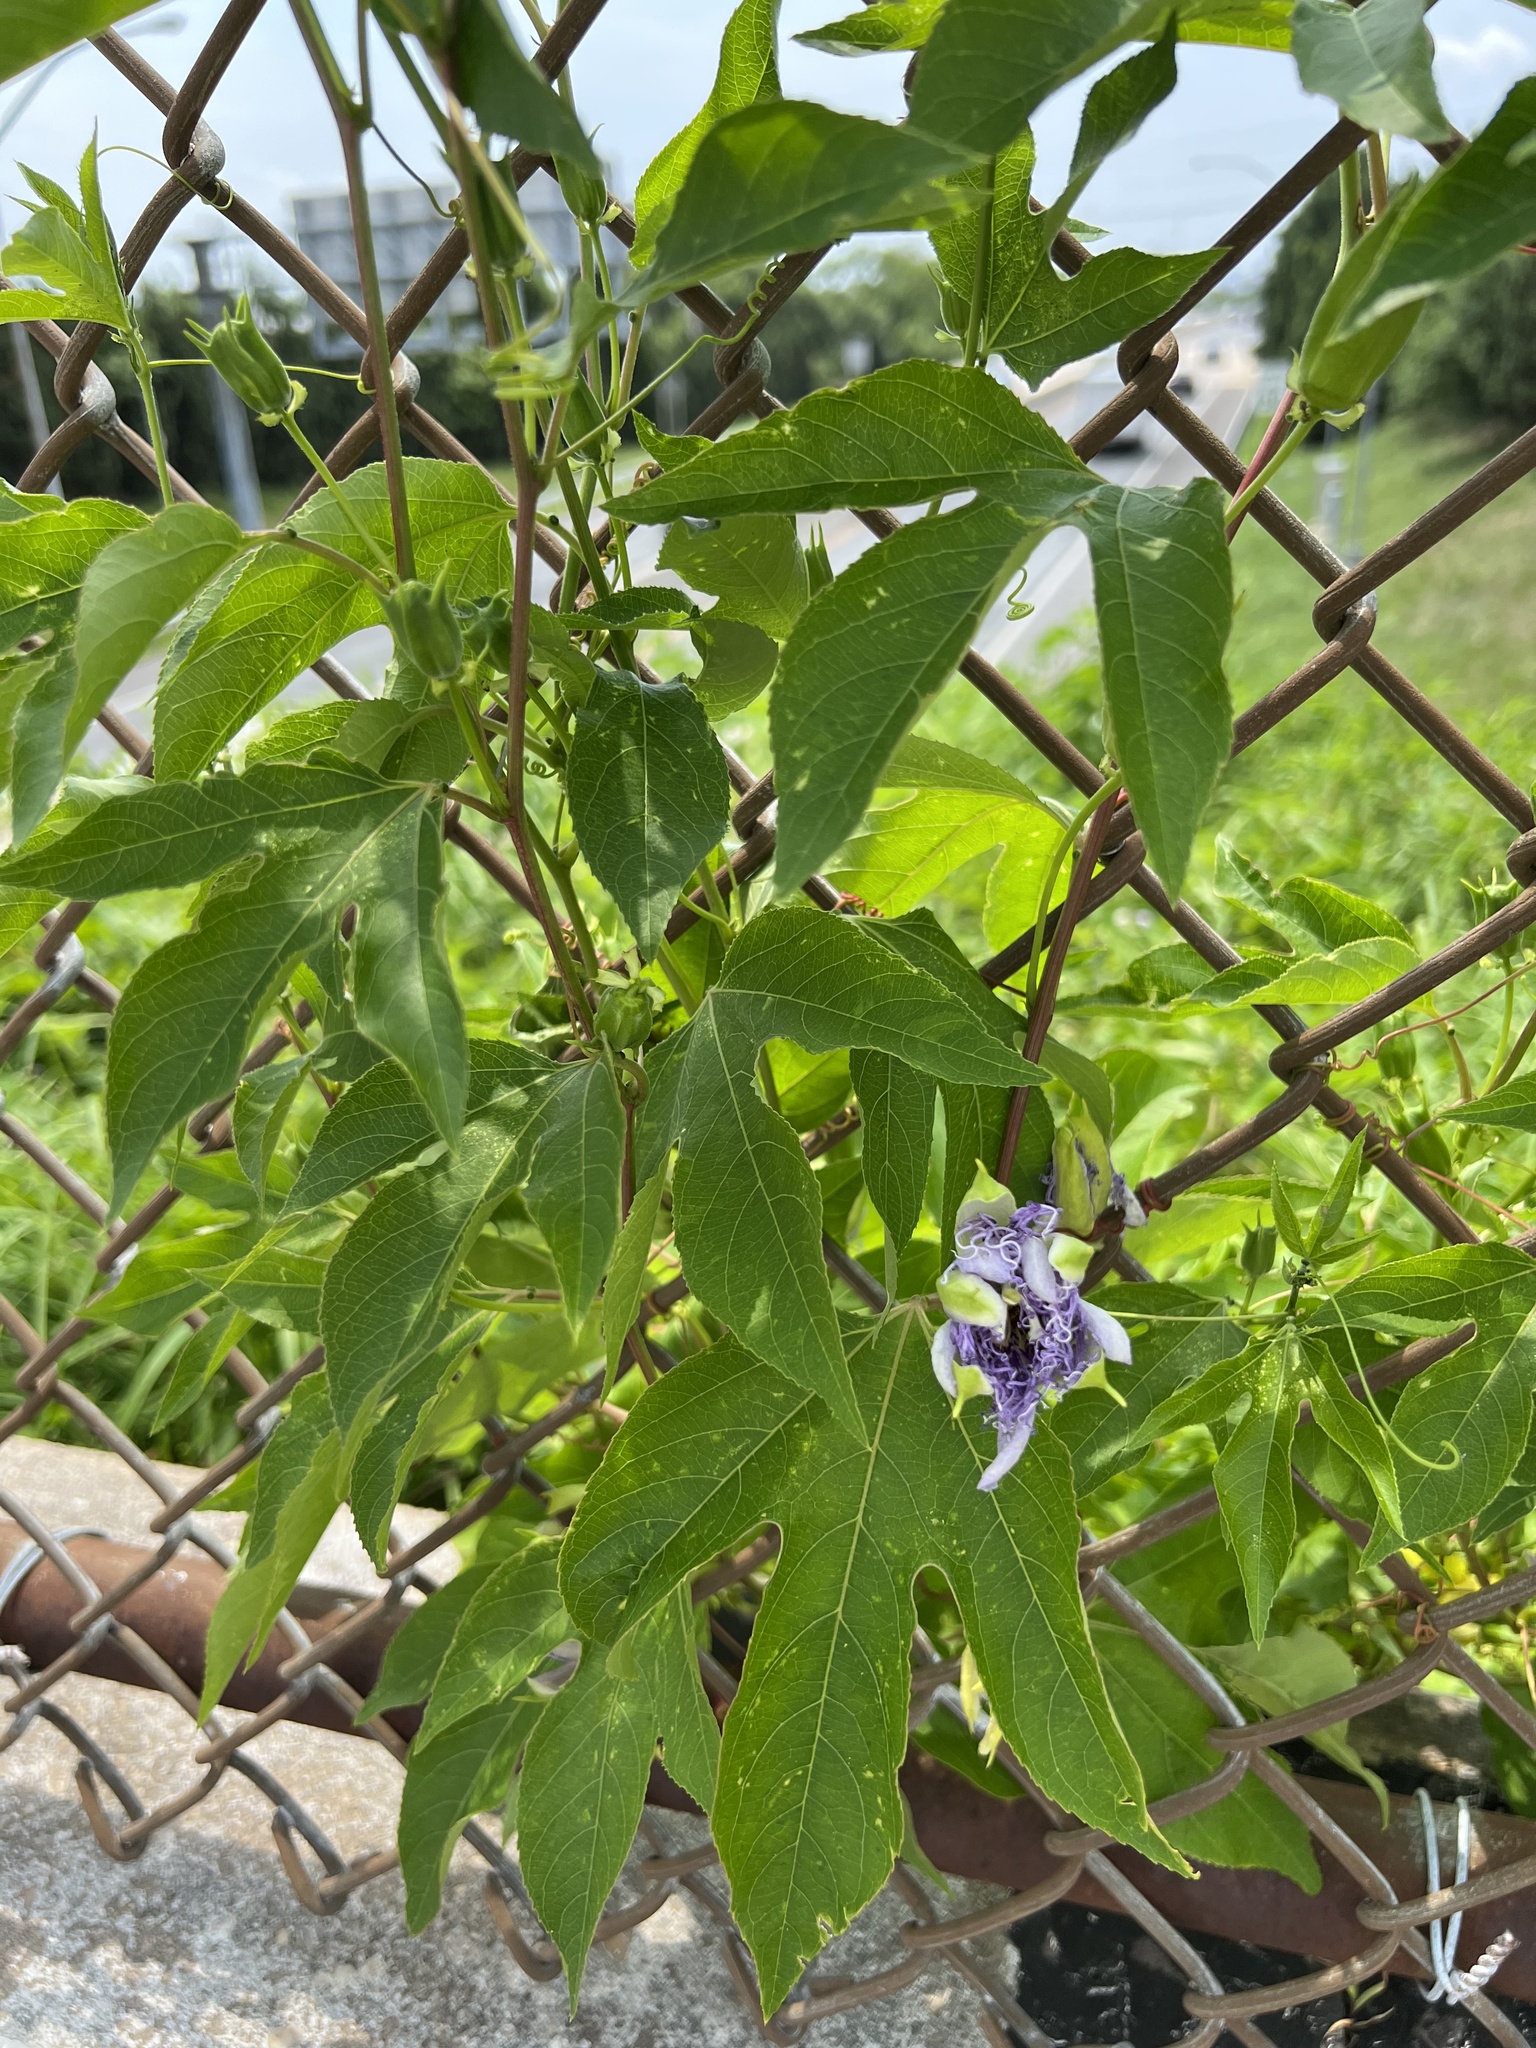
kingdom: Plantae
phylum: Tracheophyta
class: Magnoliopsida
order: Malpighiales
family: Passifloraceae
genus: Passiflora
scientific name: Passiflora incarnata
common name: Apricot-vine
